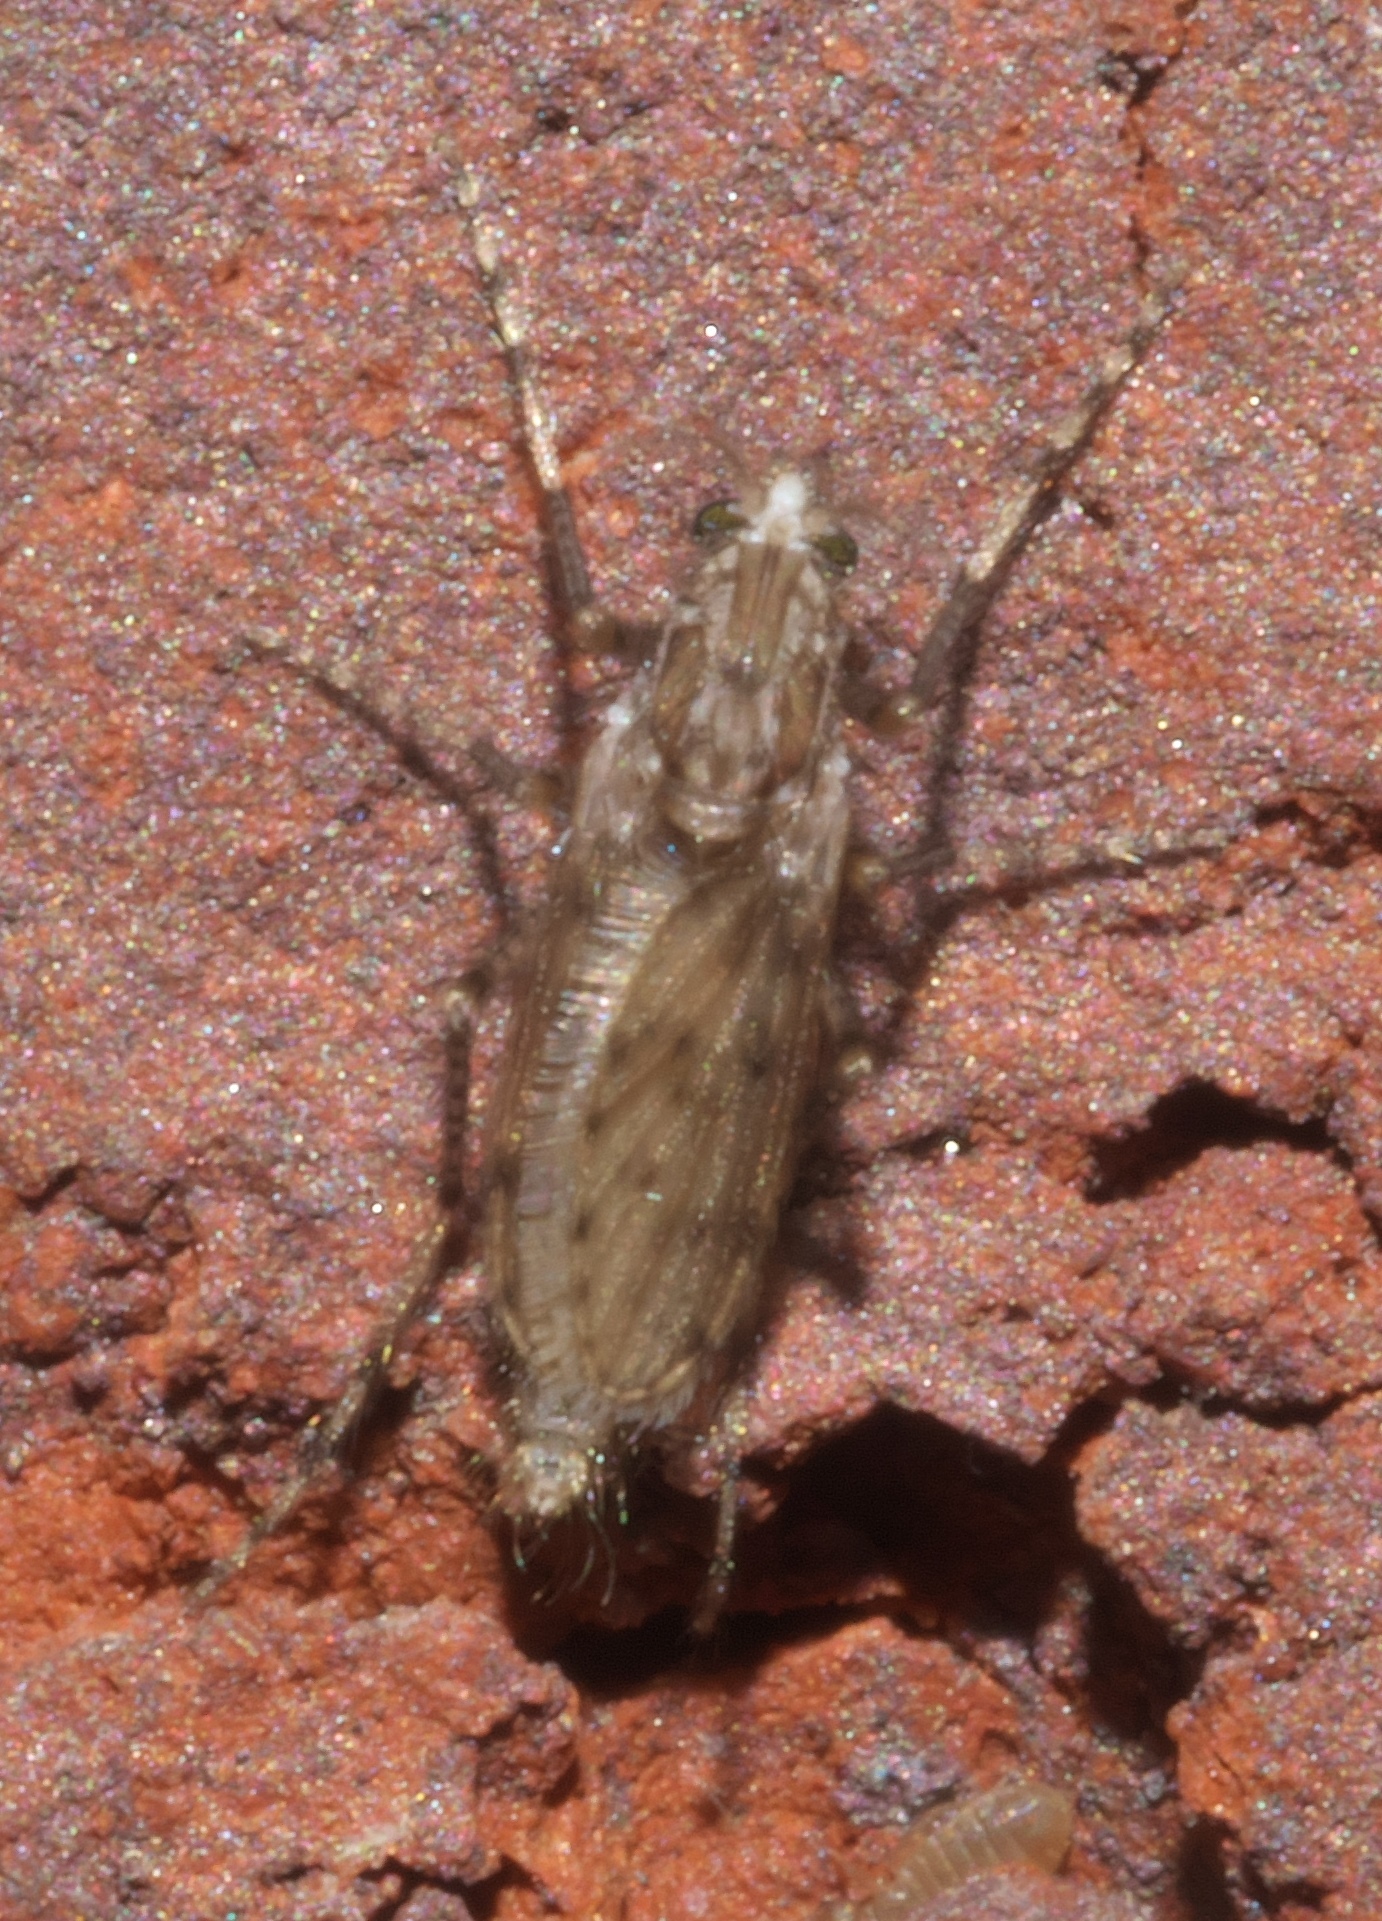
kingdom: Animalia
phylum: Arthropoda
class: Insecta
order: Diptera
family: Chaoboridae
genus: Chaoborus
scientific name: Chaoborus punctipennis
